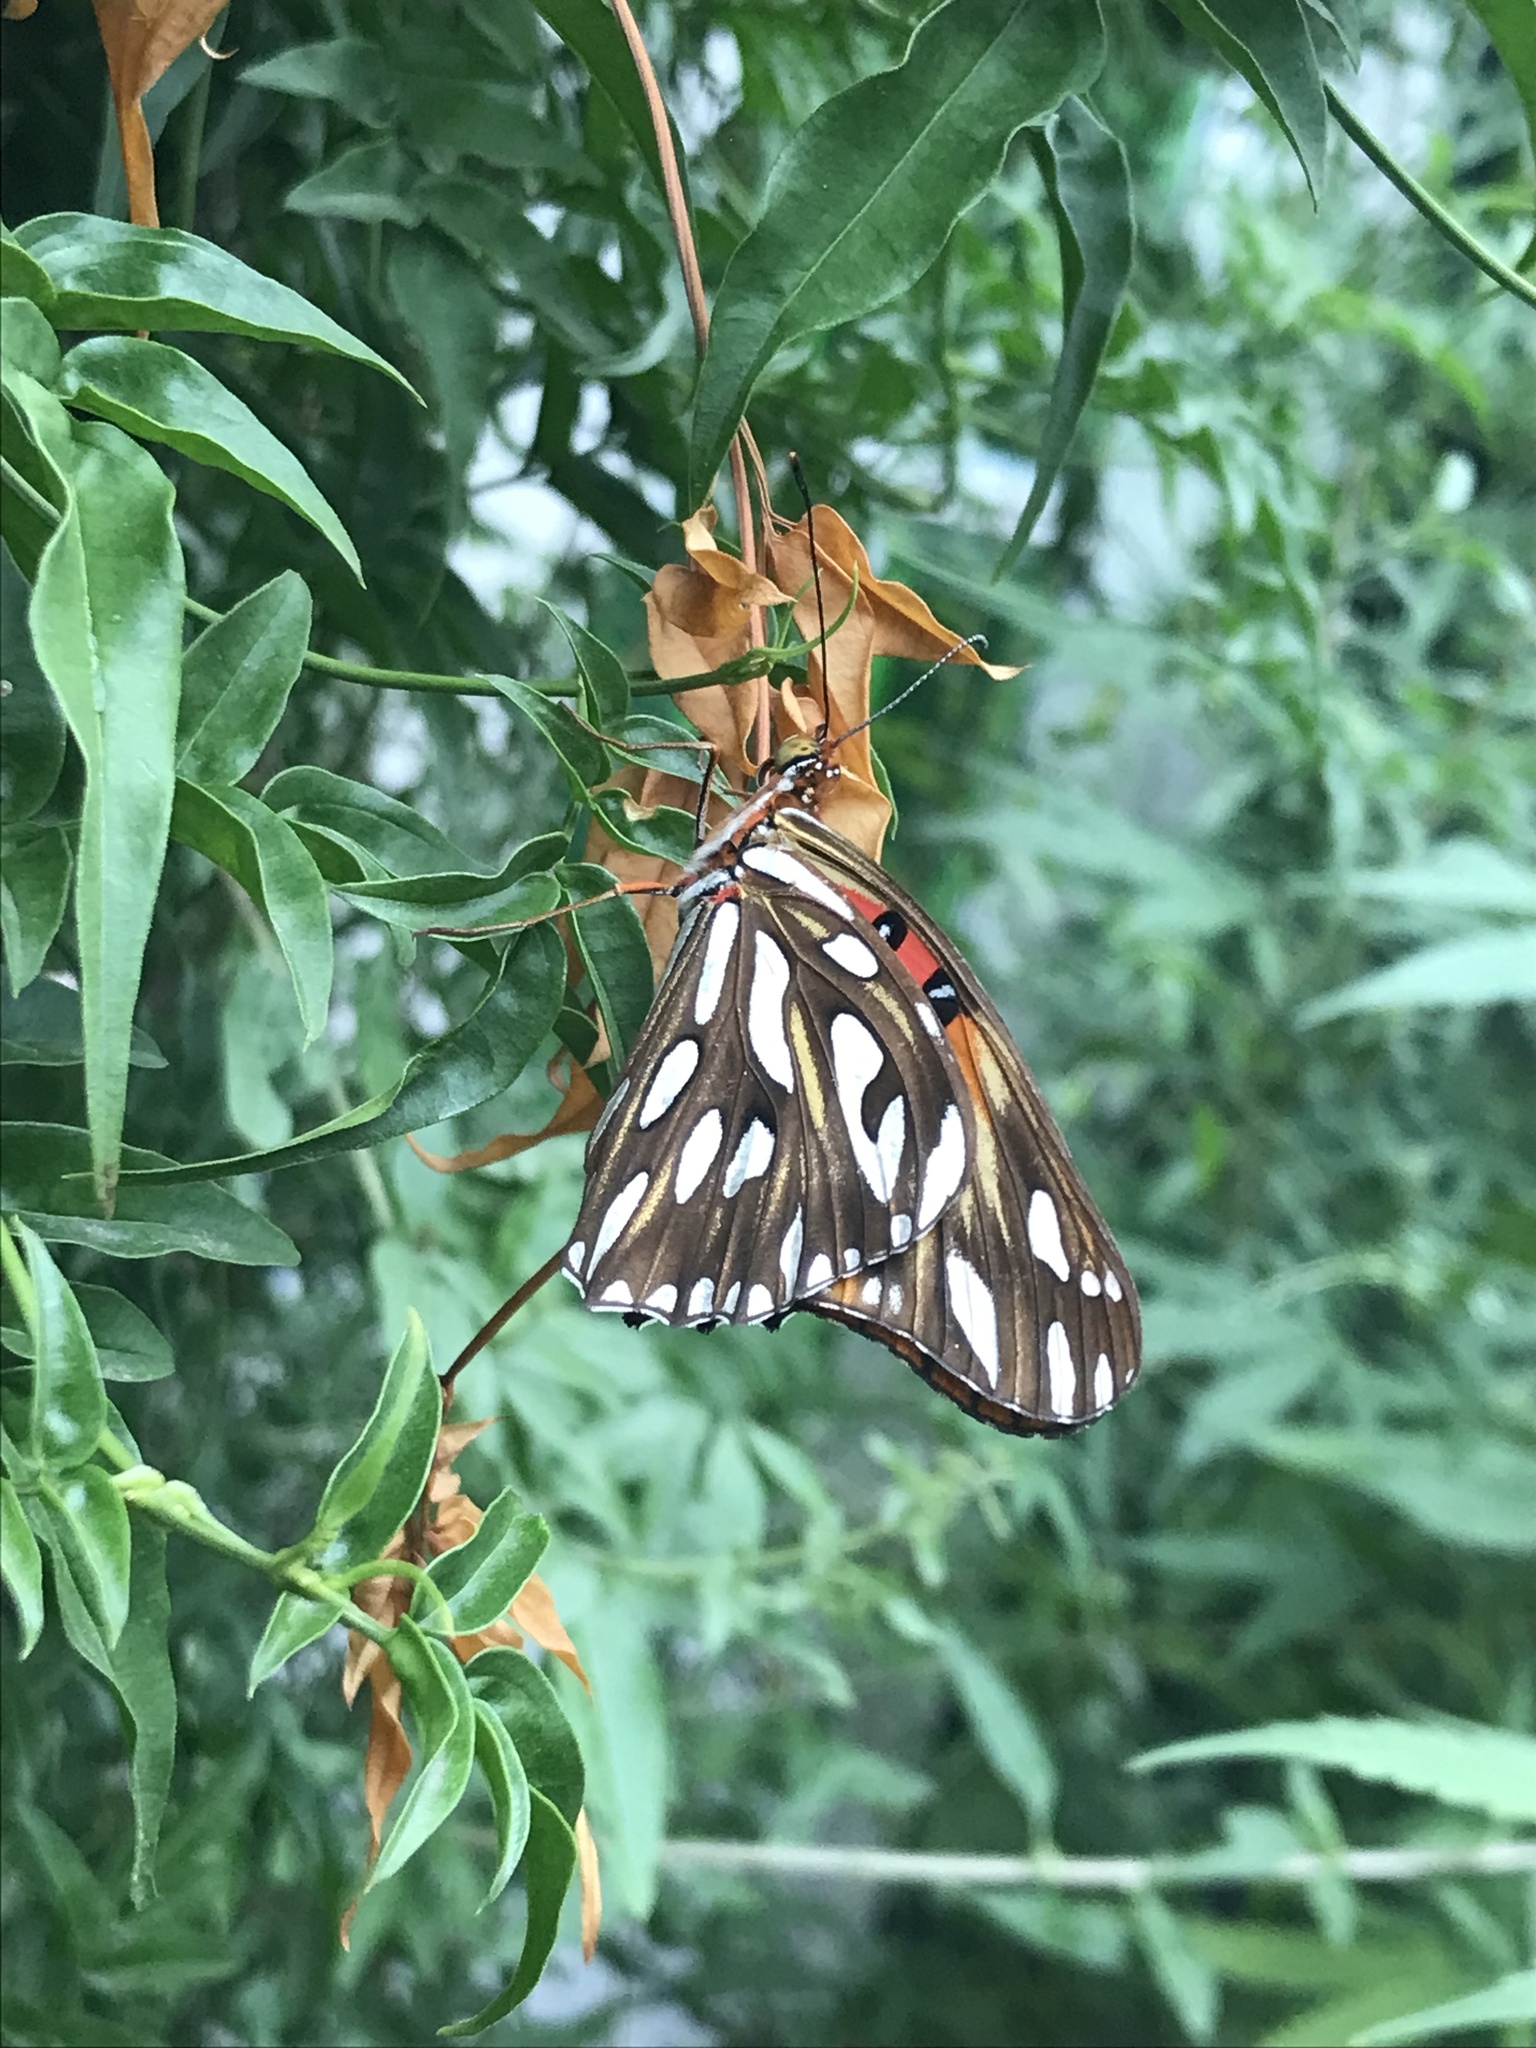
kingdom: Animalia
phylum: Arthropoda
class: Insecta
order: Lepidoptera
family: Nymphalidae
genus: Dione
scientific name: Dione vanillae
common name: Gulf fritillary
